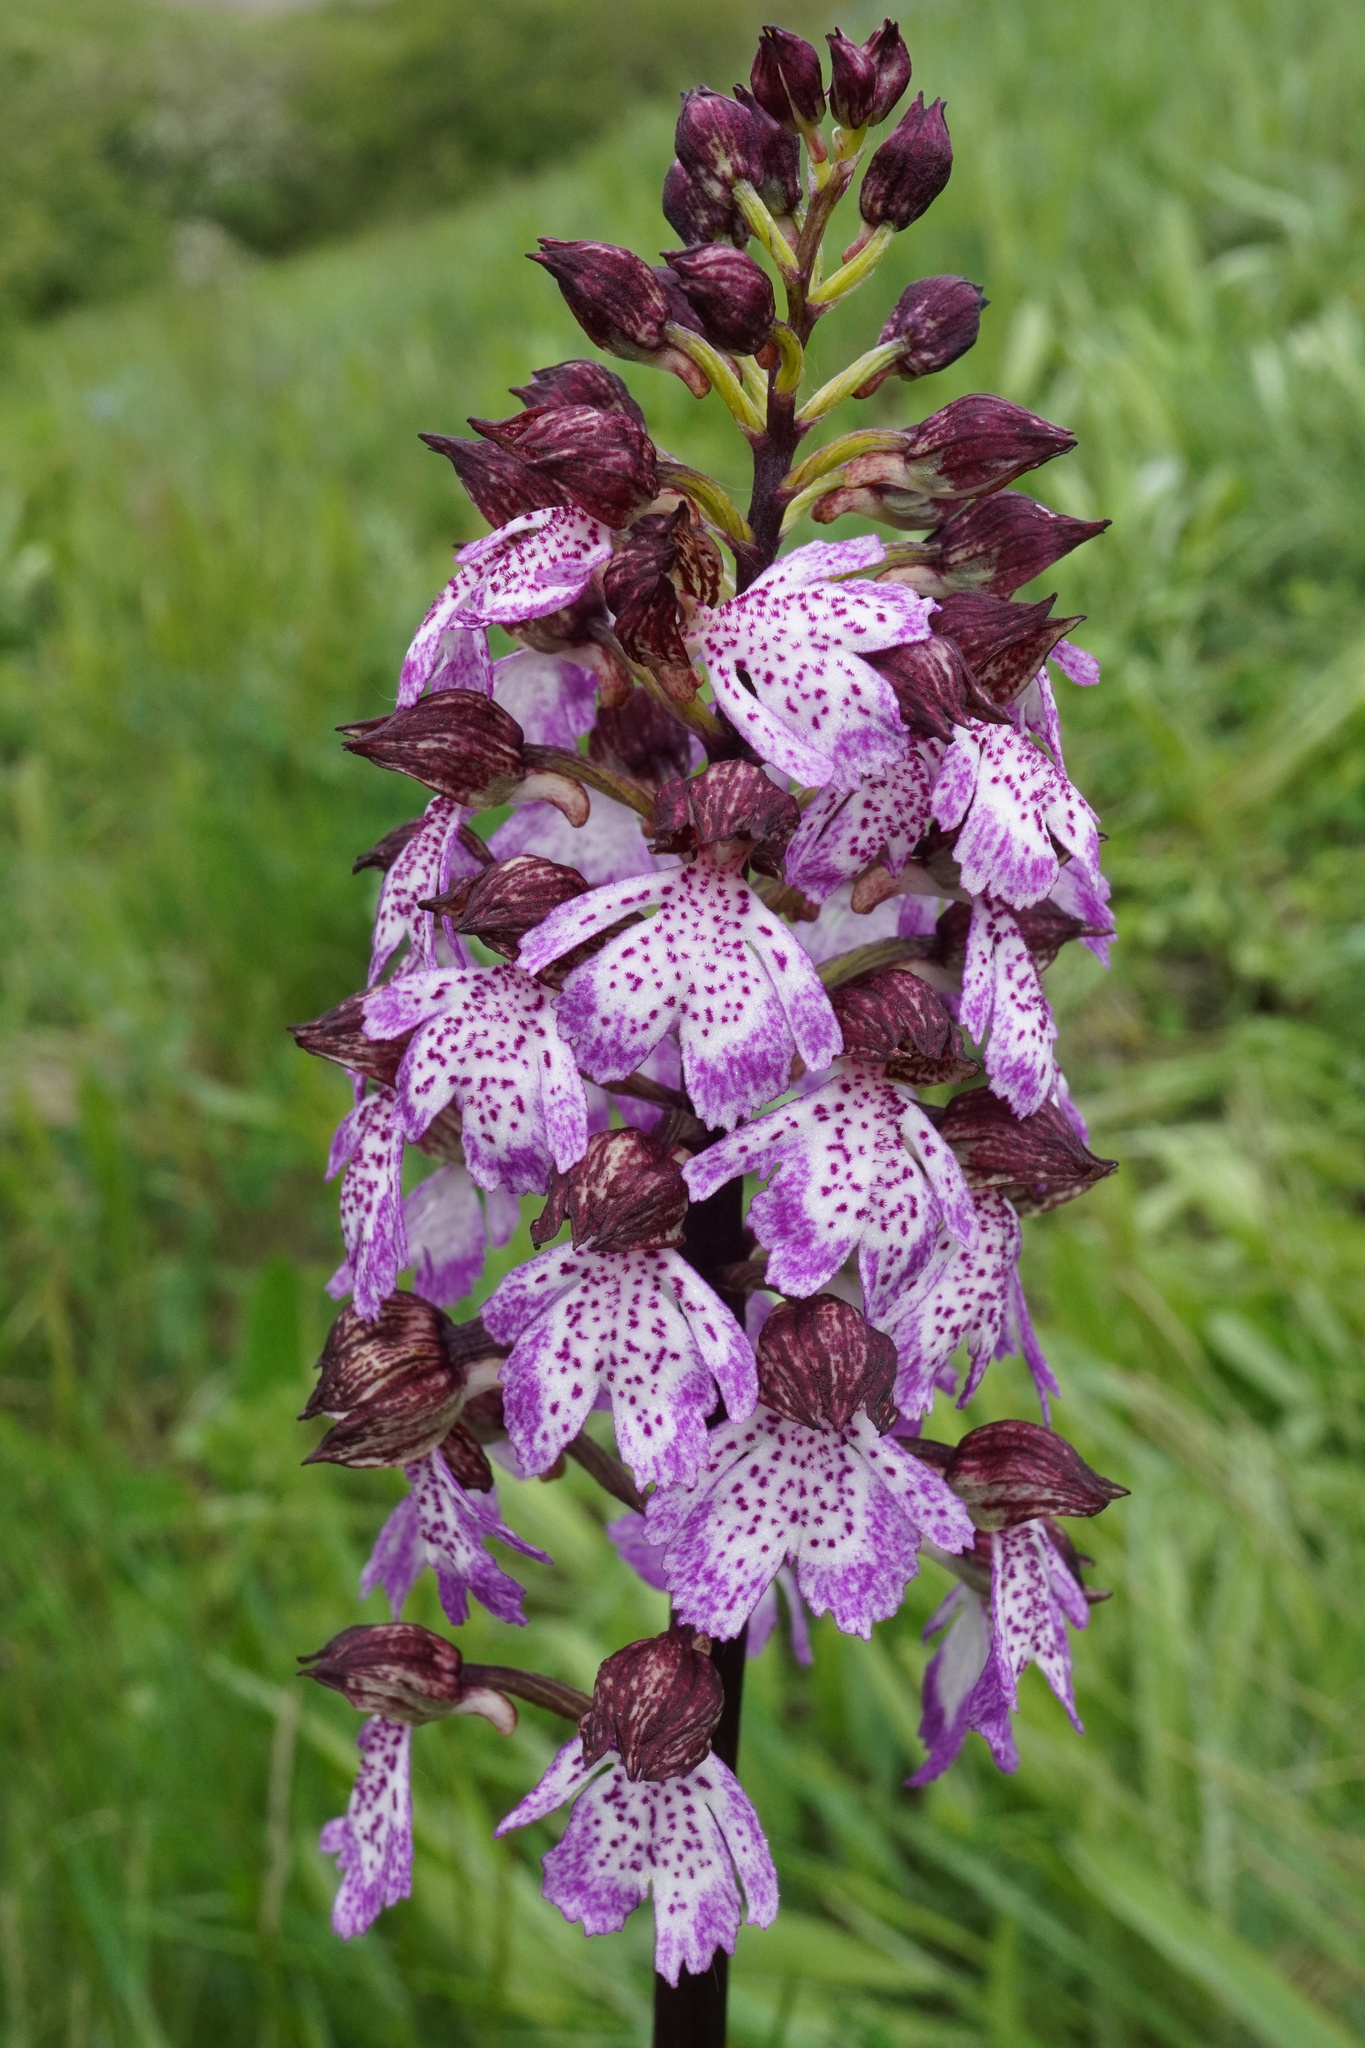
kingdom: Plantae
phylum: Tracheophyta
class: Liliopsida
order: Asparagales
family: Orchidaceae
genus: Orchis
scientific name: Orchis purpurea
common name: Lady orchid
